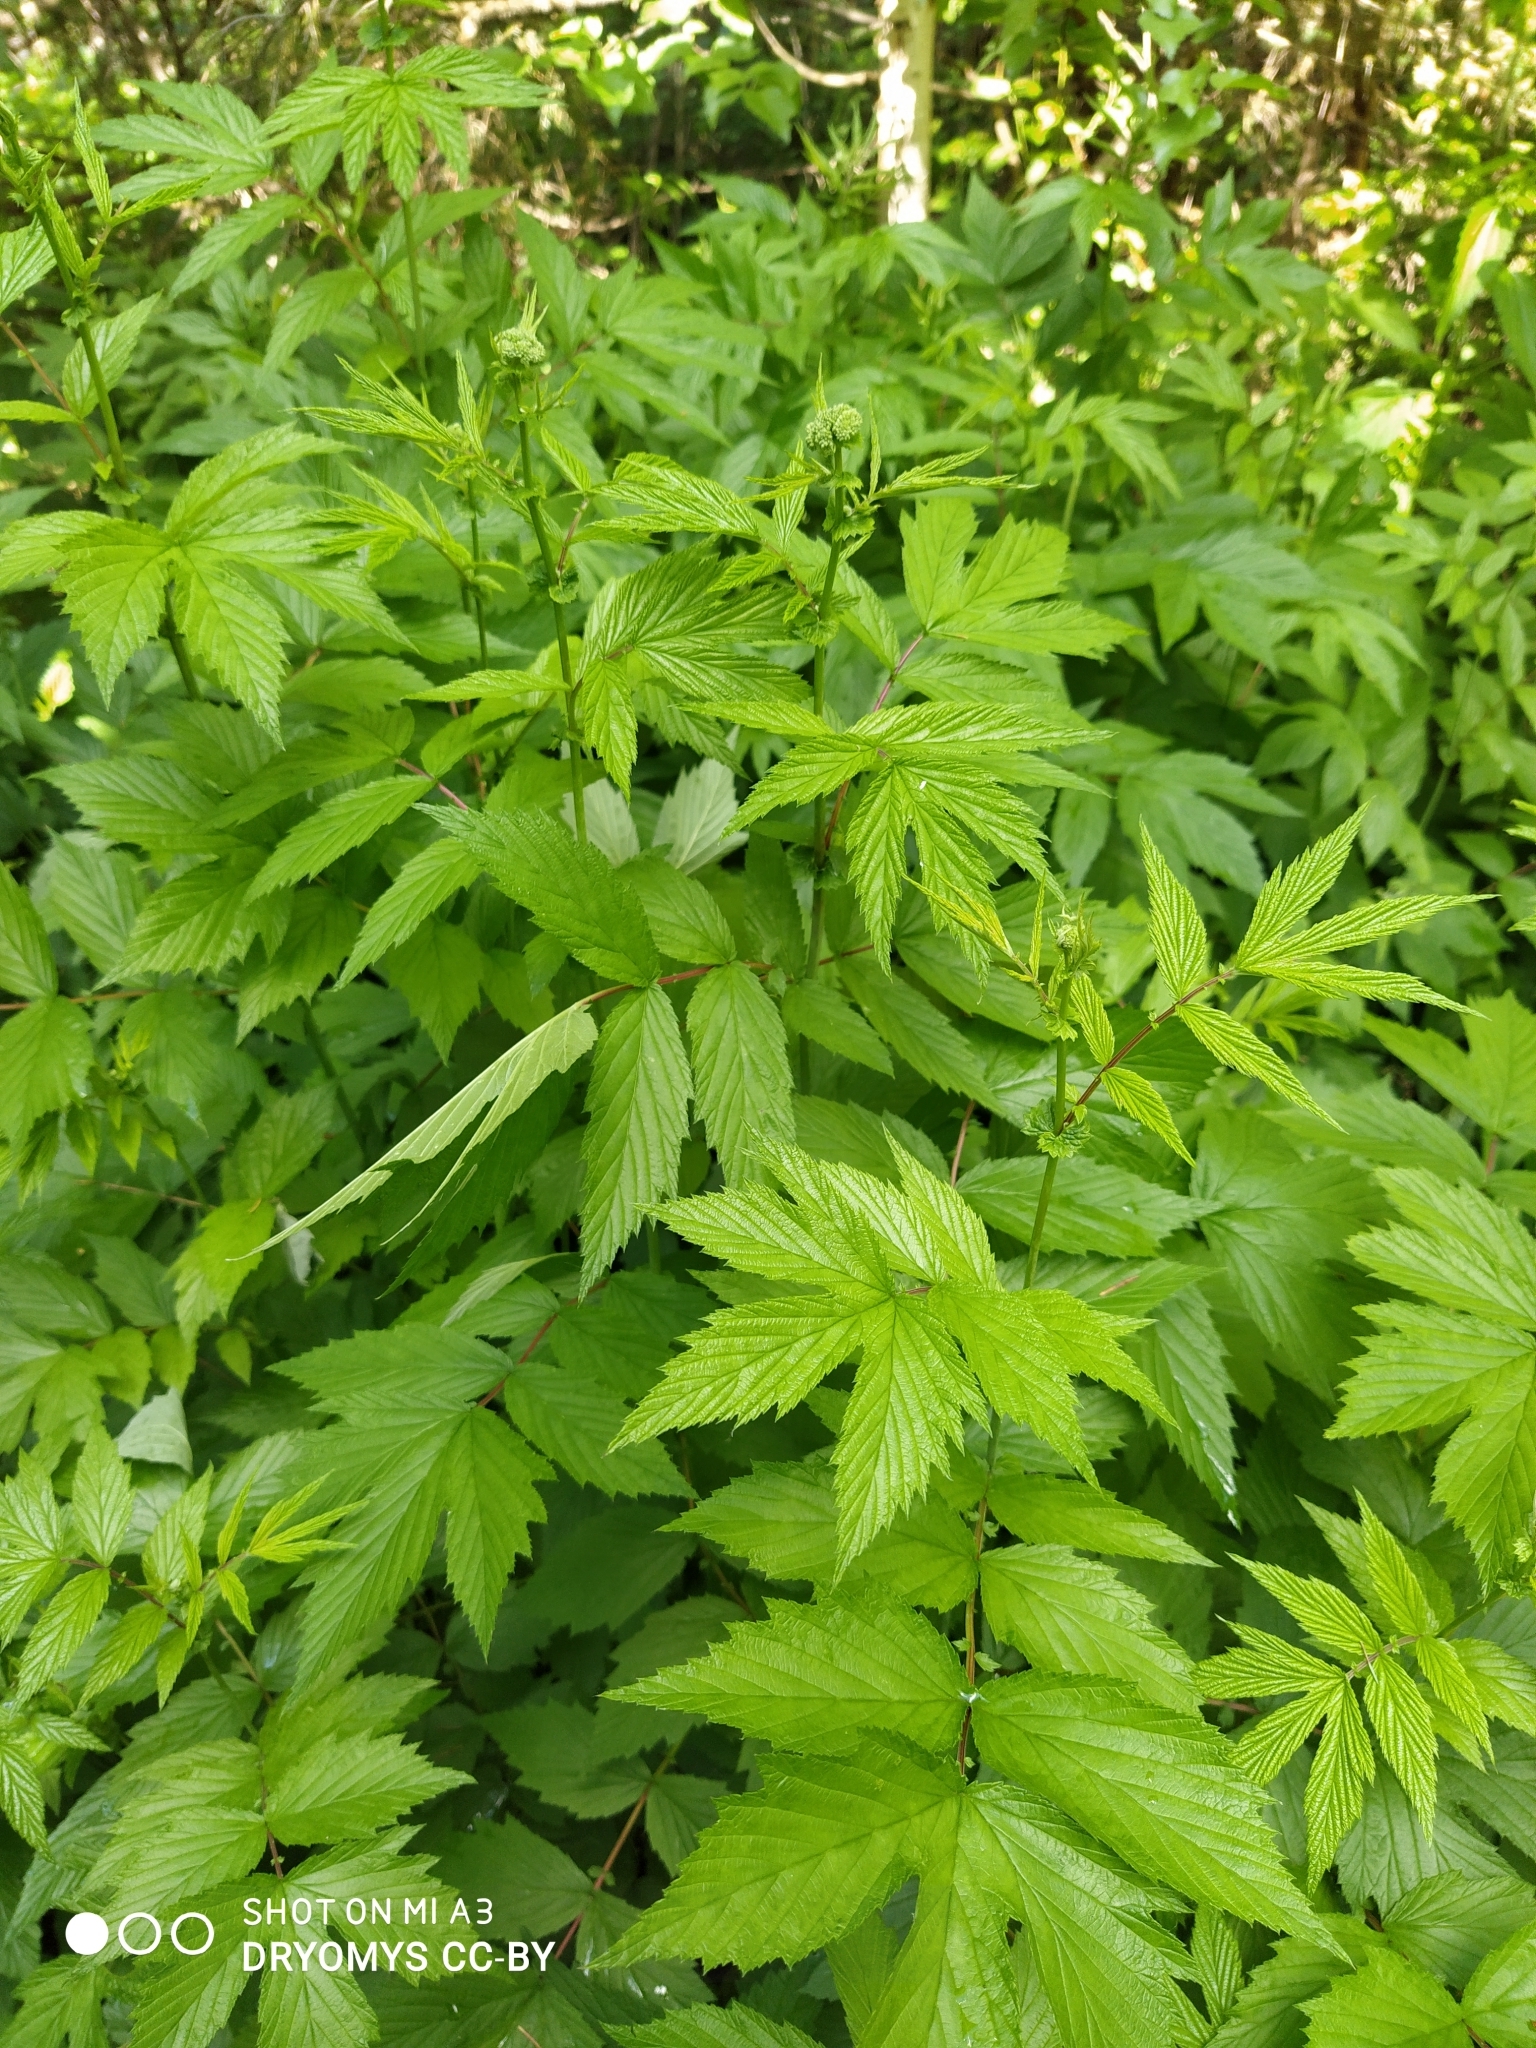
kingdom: Plantae
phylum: Tracheophyta
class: Magnoliopsida
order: Rosales
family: Rosaceae
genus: Filipendula
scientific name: Filipendula ulmaria
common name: Meadowsweet
